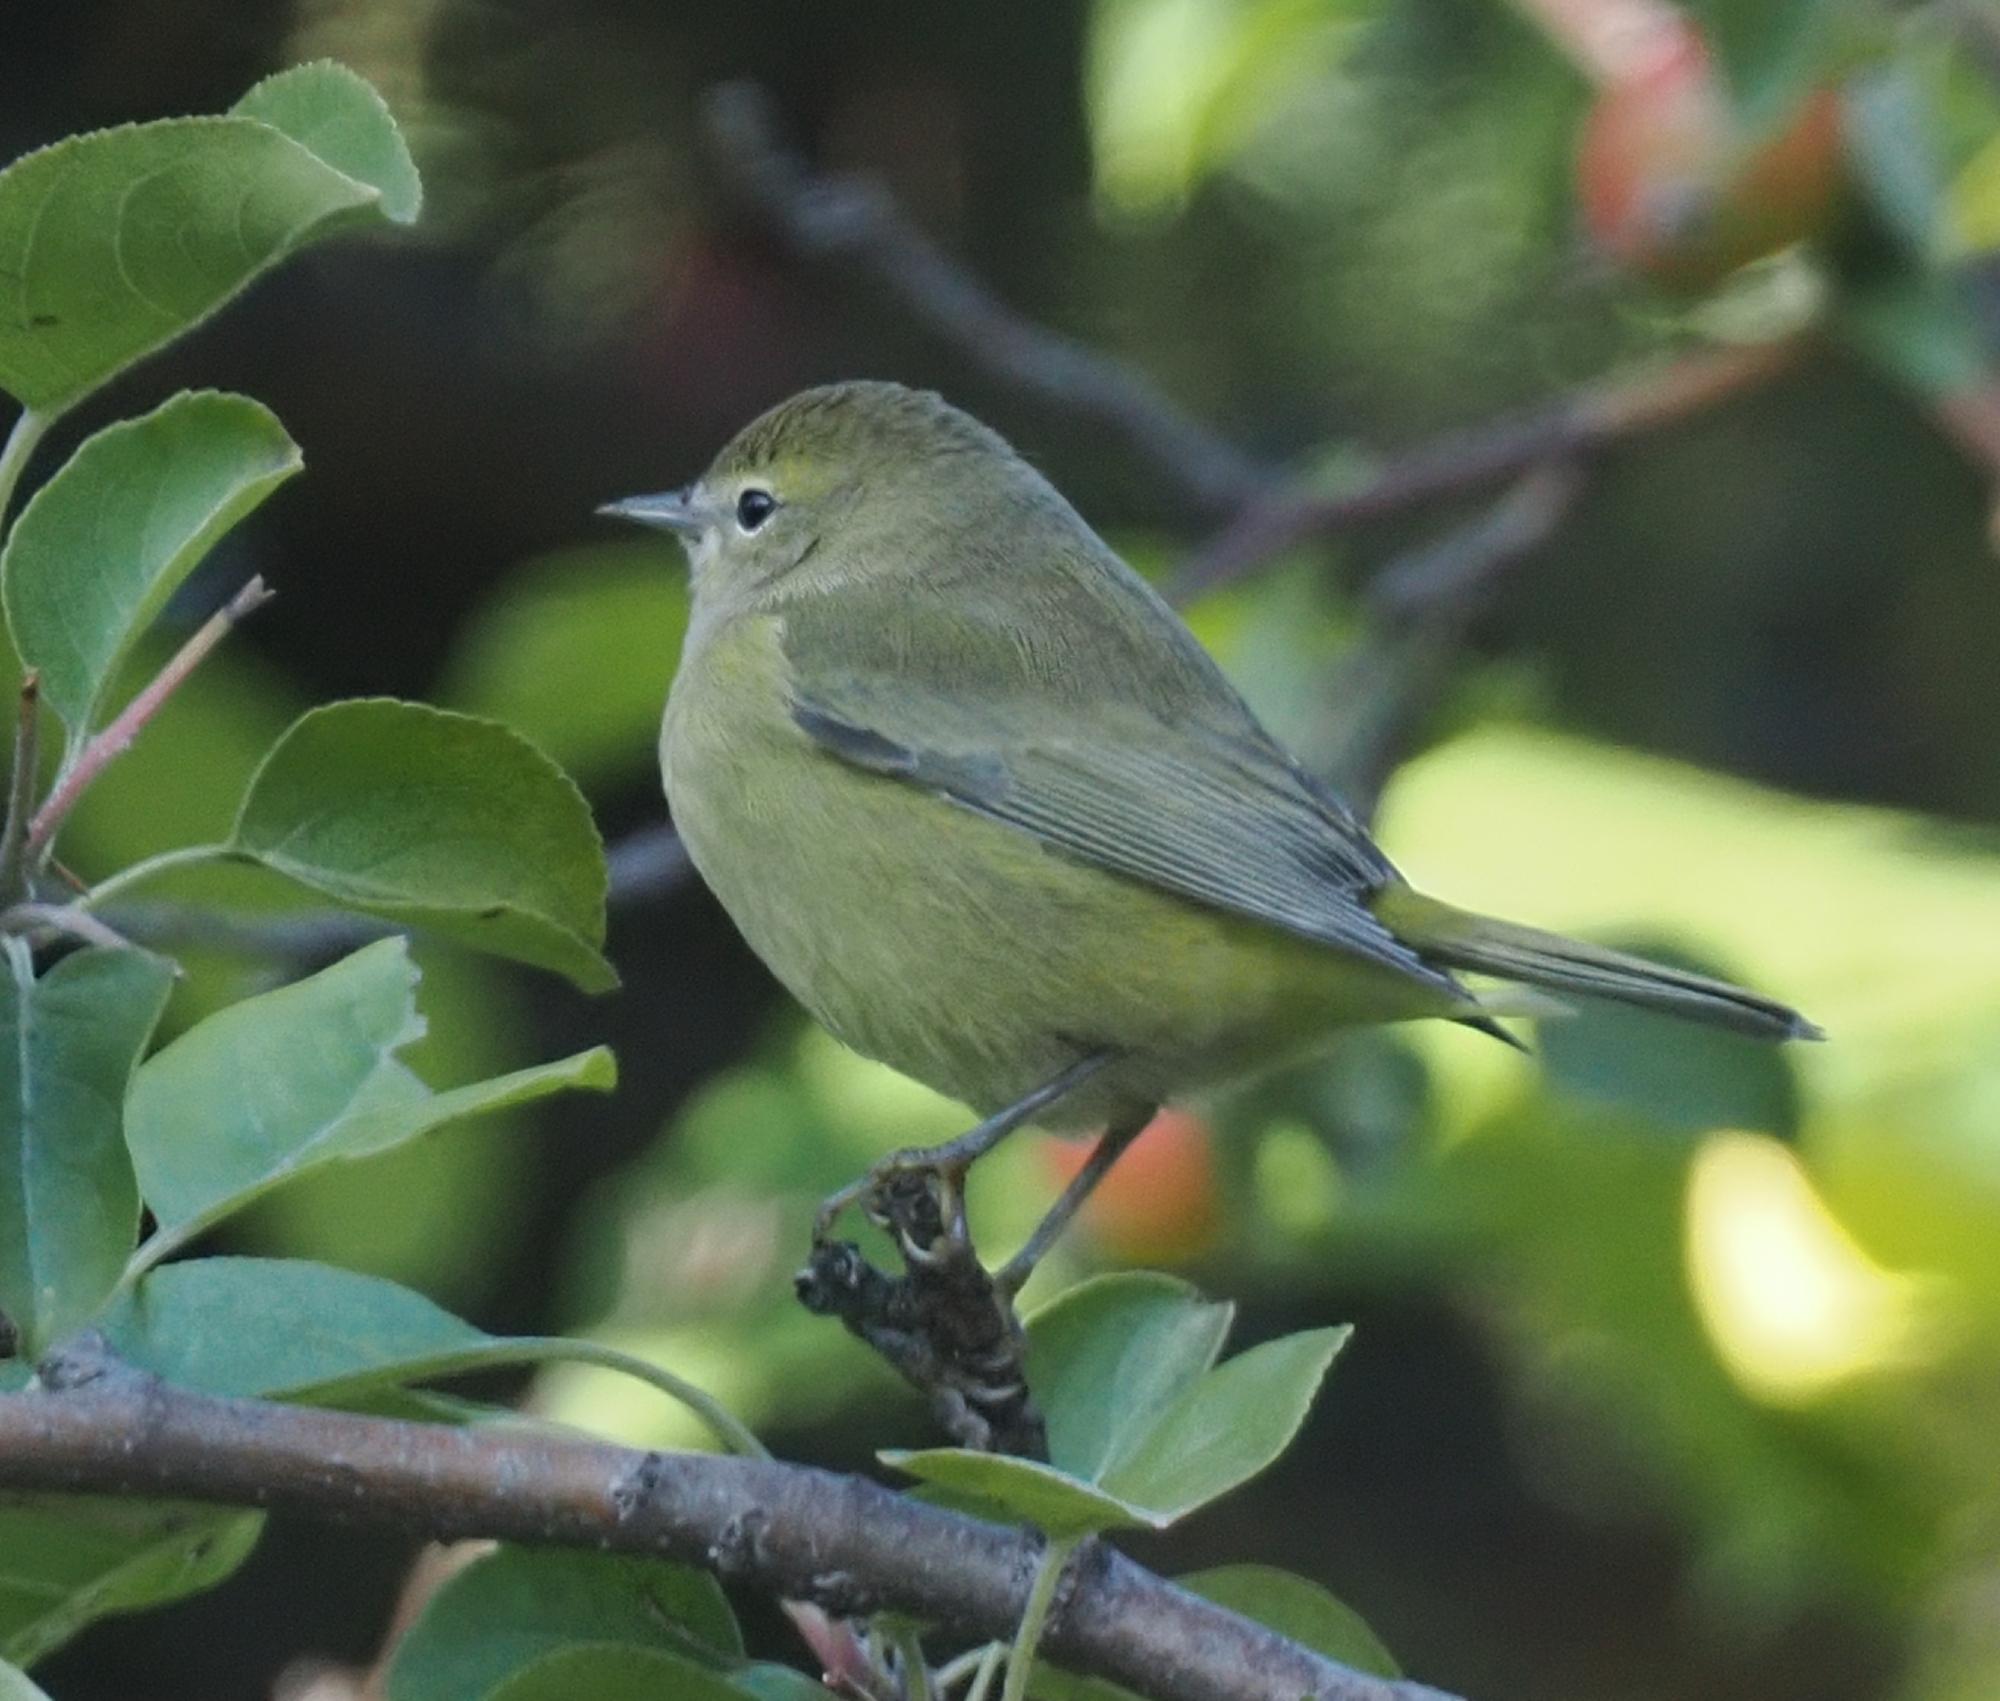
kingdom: Animalia
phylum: Chordata
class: Aves
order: Passeriformes
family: Parulidae
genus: Leiothlypis
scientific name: Leiothlypis celata
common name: Orange-crowned warbler
